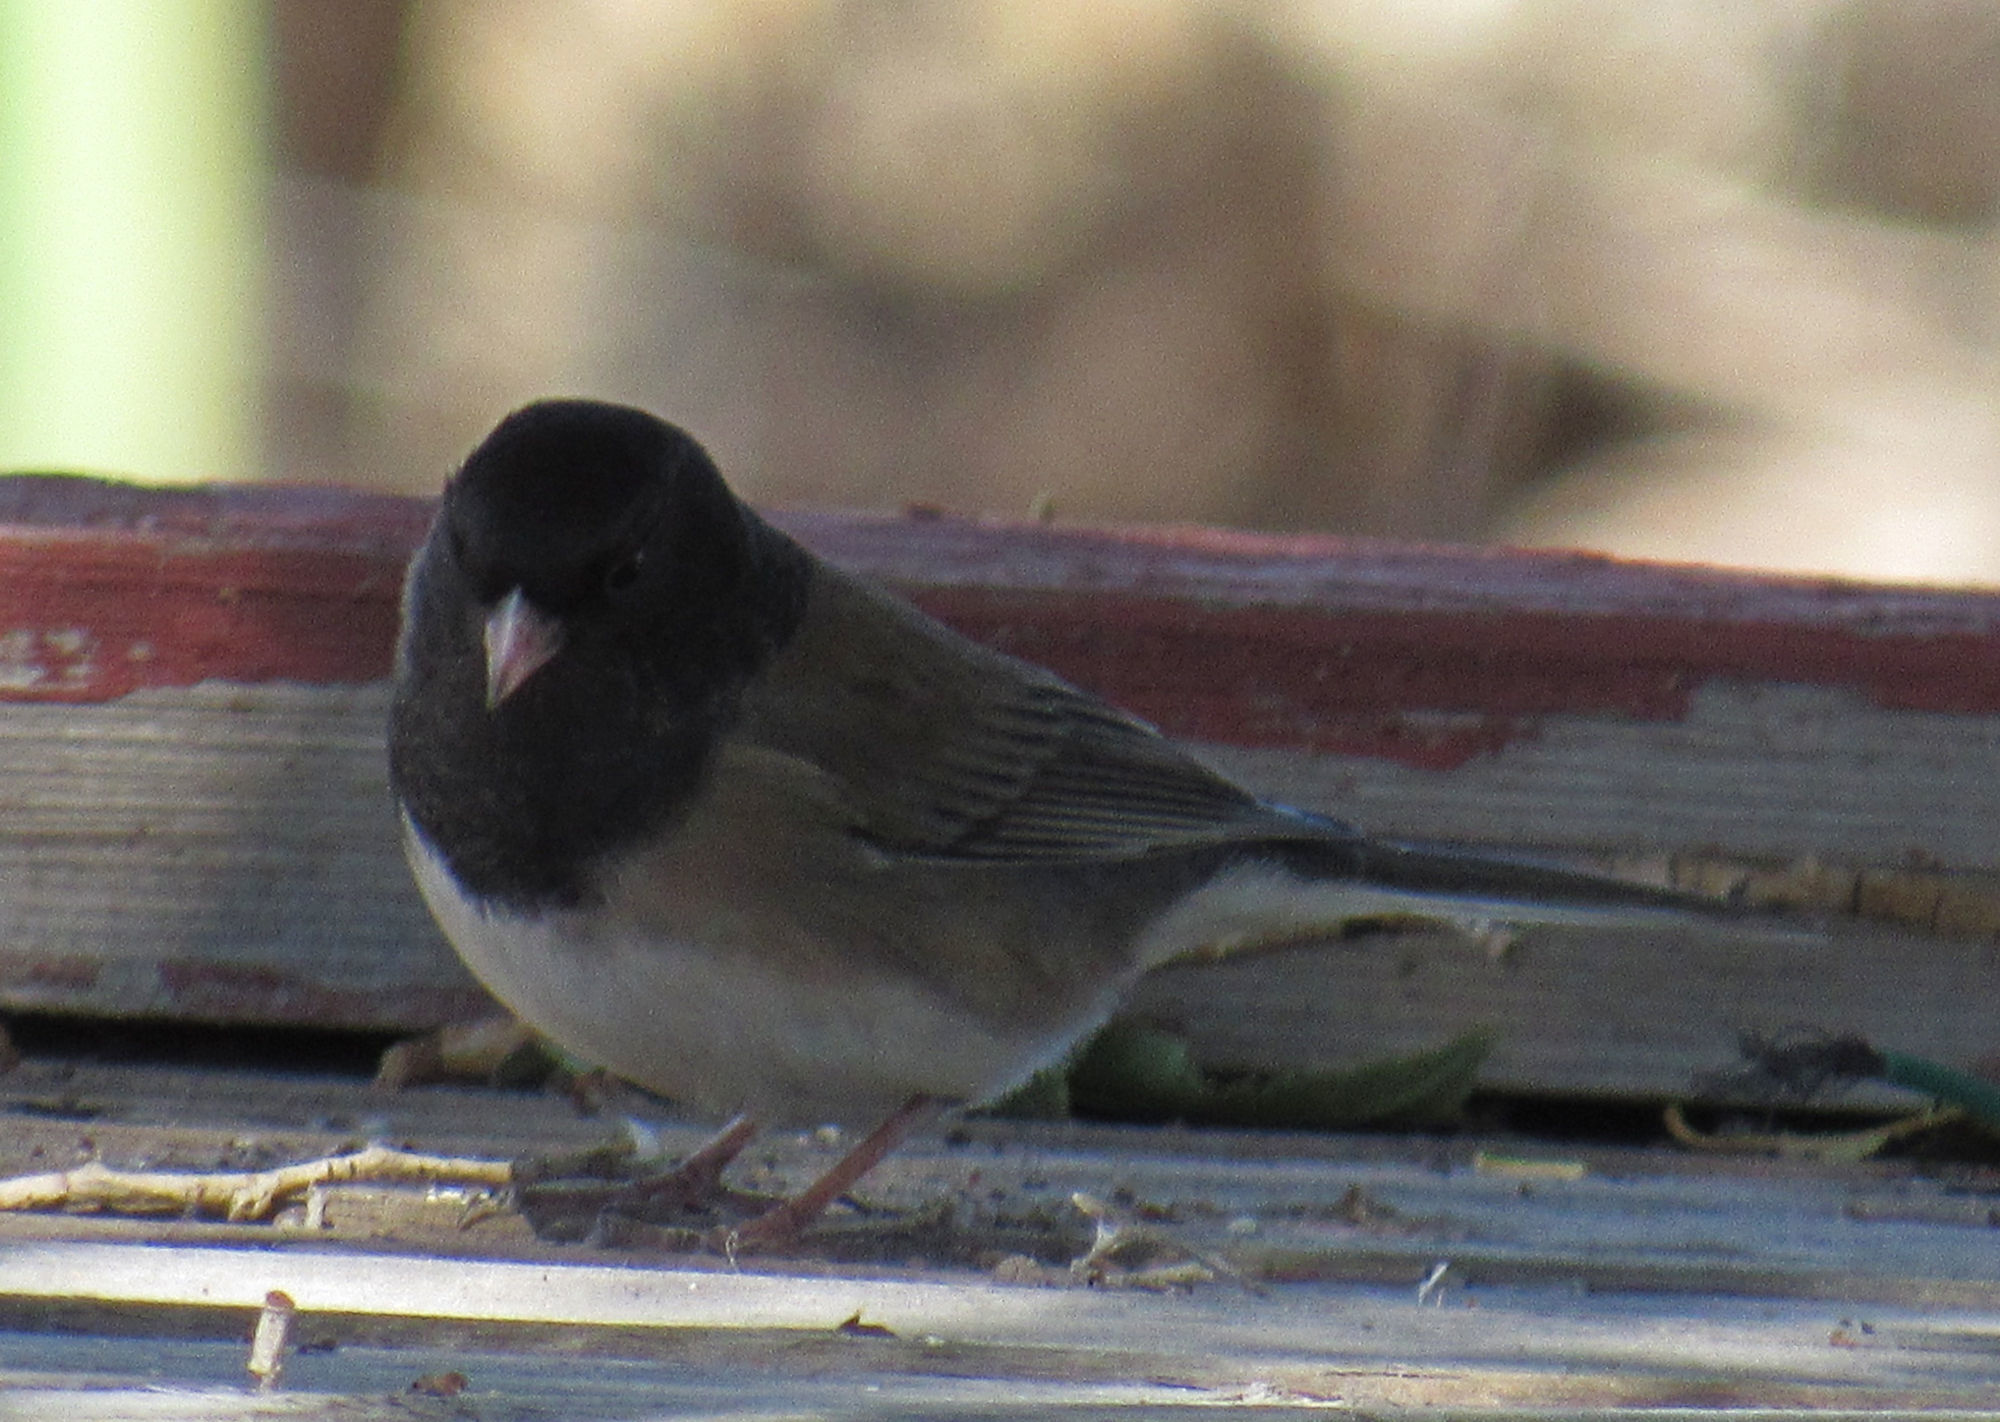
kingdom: Animalia
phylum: Chordata
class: Aves
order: Passeriformes
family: Passerellidae
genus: Junco
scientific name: Junco hyemalis
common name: Dark-eyed junco
